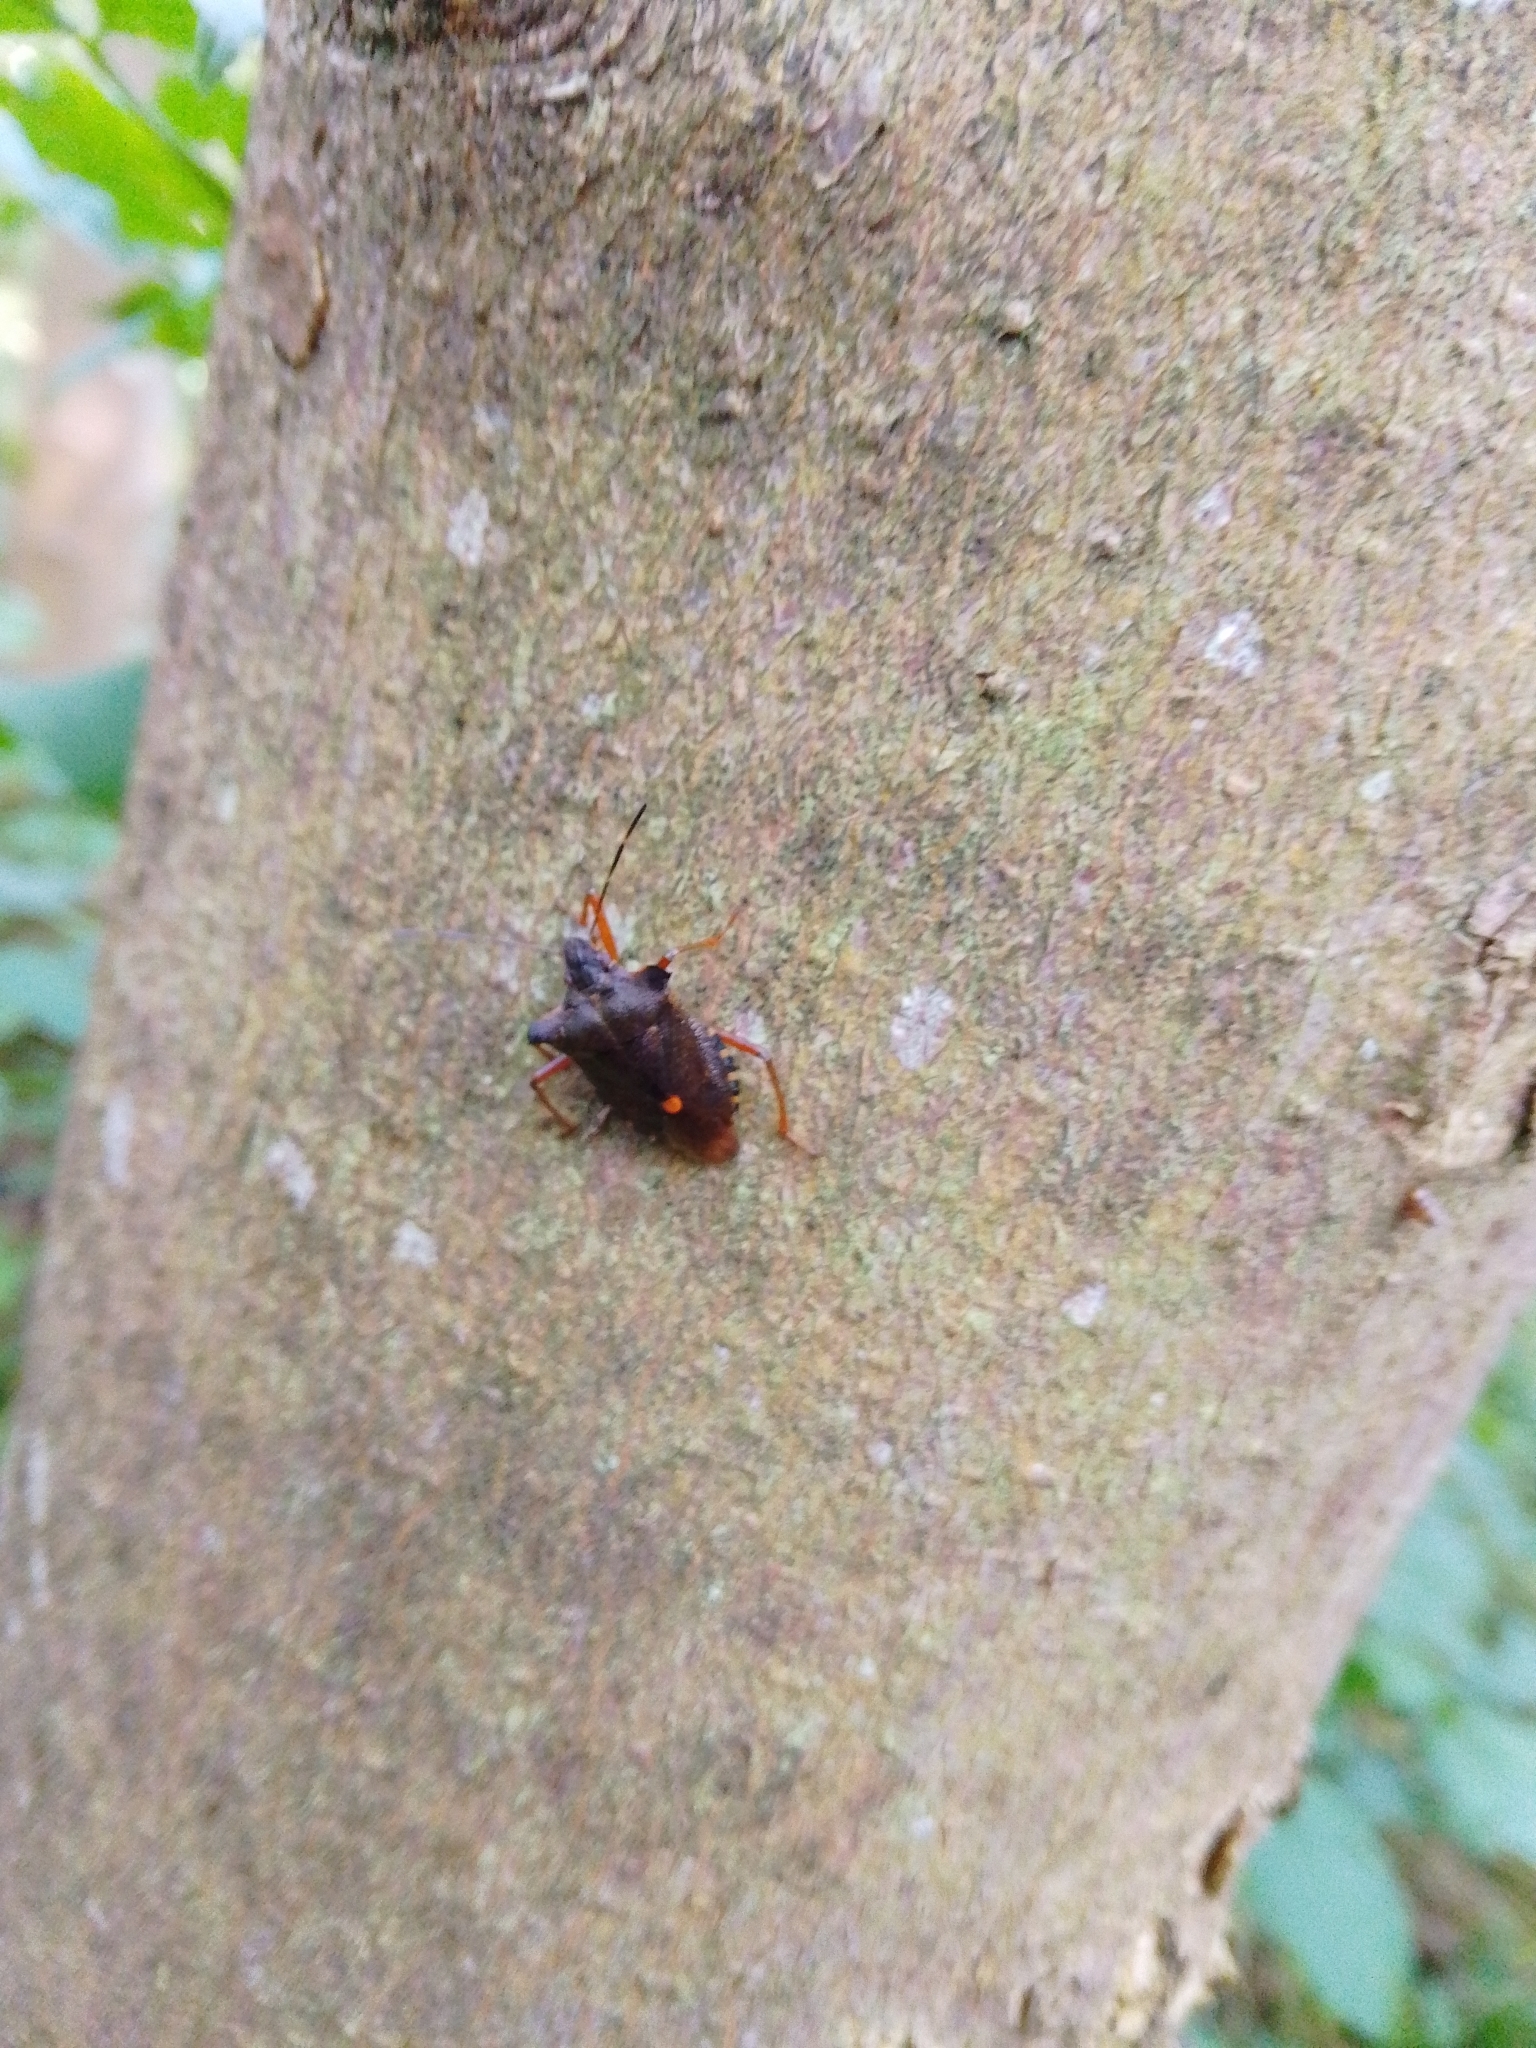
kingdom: Animalia
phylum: Arthropoda
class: Insecta
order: Hemiptera
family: Pentatomidae
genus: Pentatoma
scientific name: Pentatoma rufipes
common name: Forest bug
